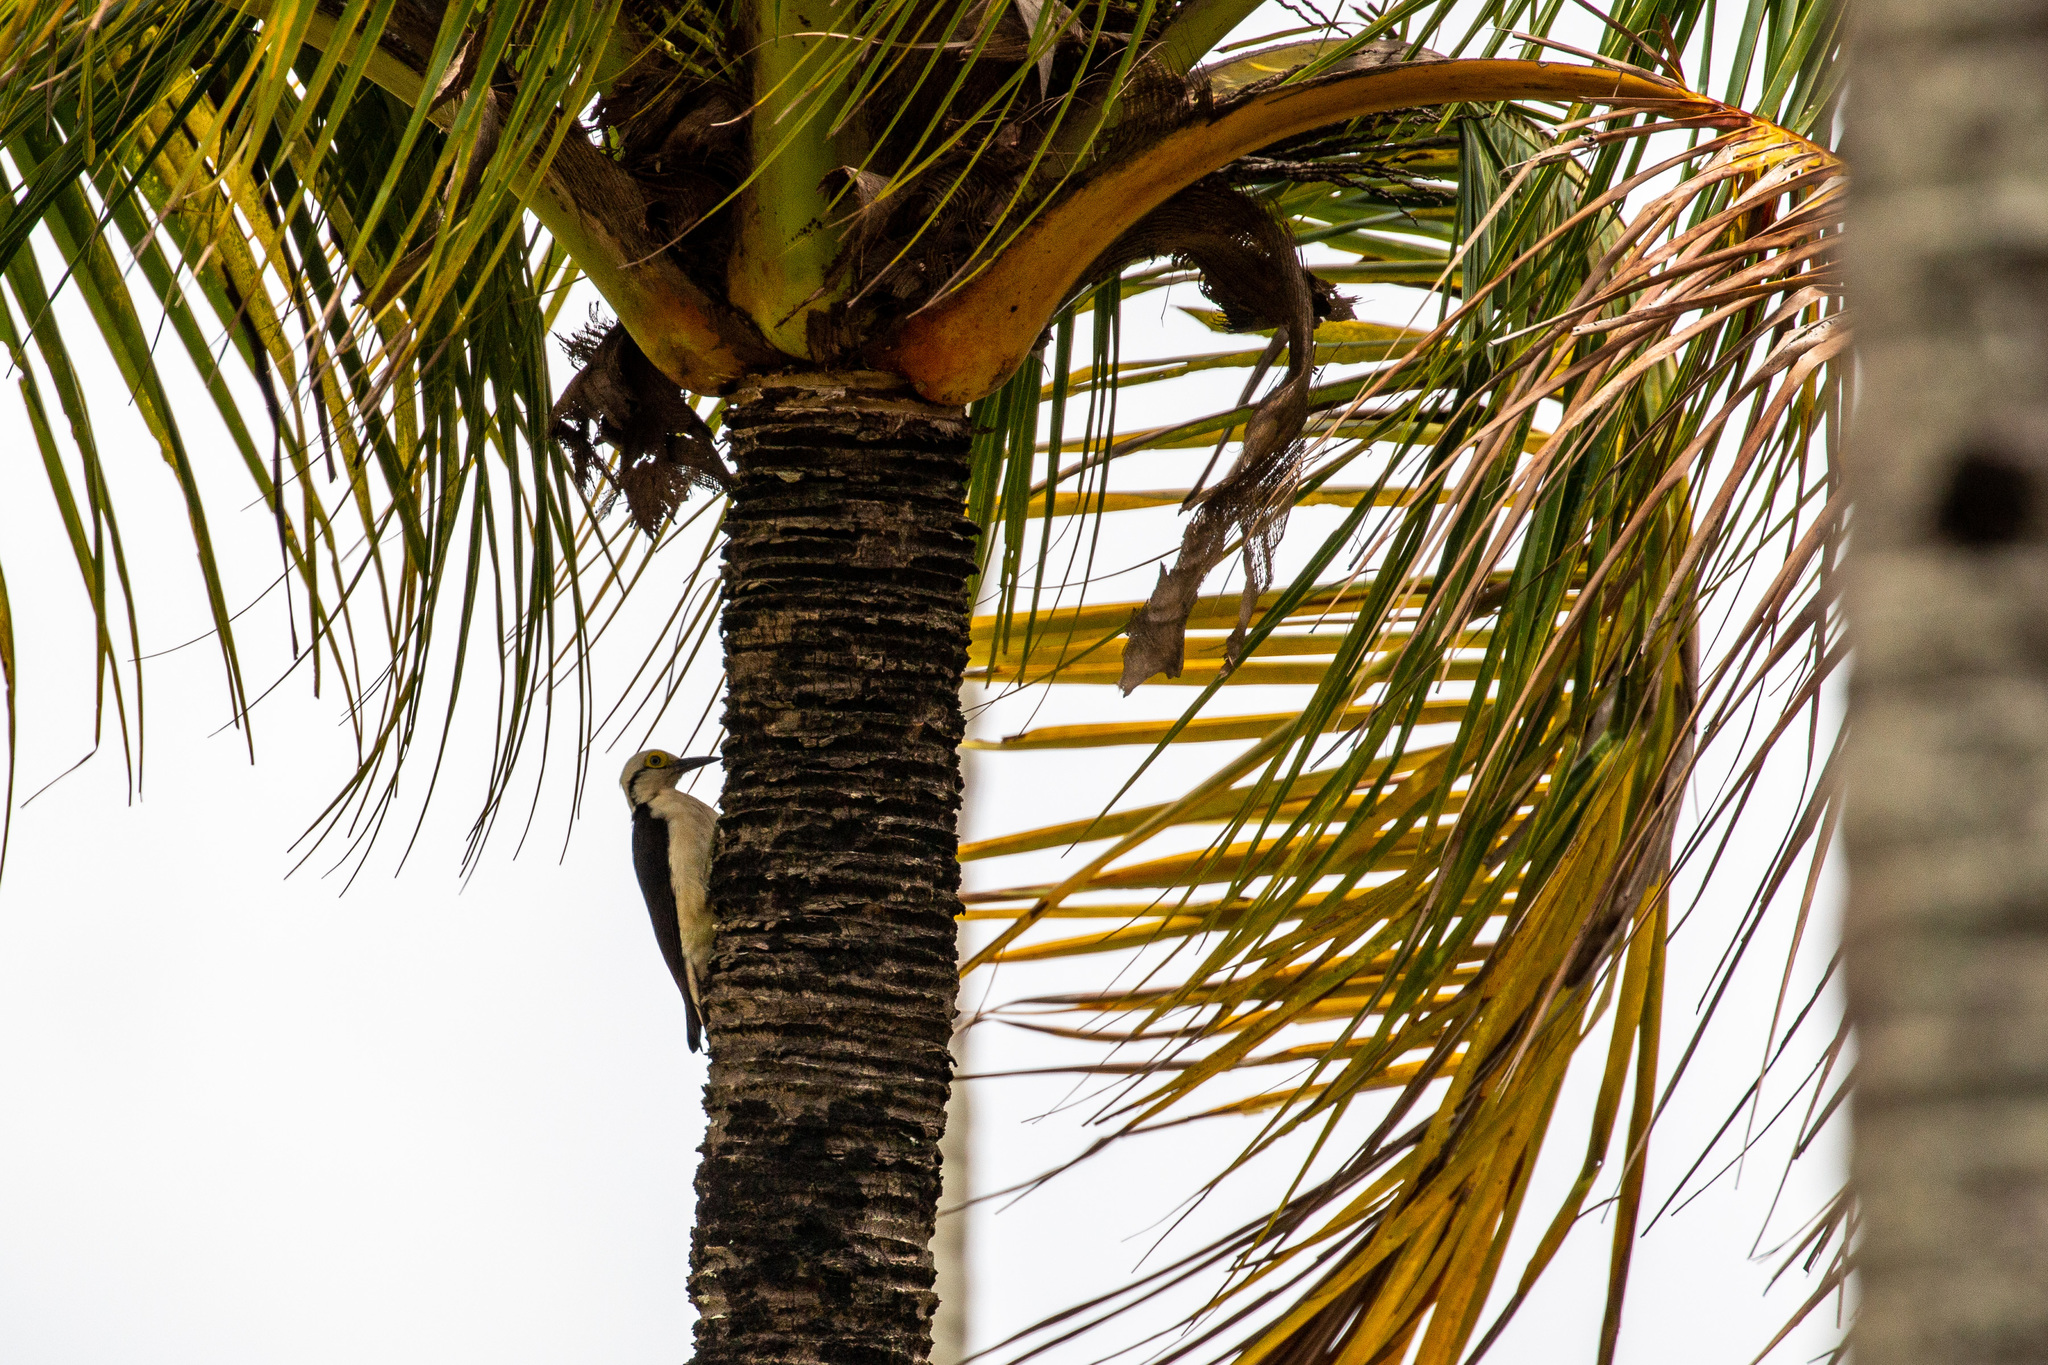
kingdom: Animalia
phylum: Chordata
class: Aves
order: Piciformes
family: Picidae
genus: Melanerpes
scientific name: Melanerpes candidus
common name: White woodpecker
